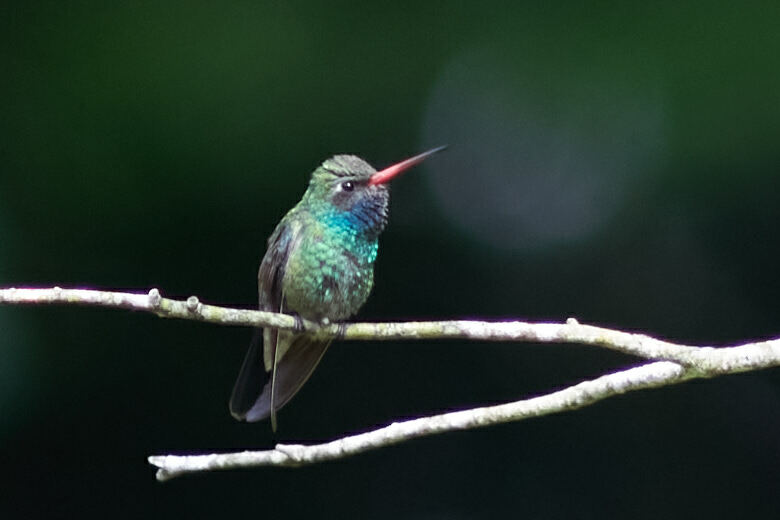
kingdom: Animalia
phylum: Chordata
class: Aves
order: Apodiformes
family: Trochilidae
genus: Cynanthus
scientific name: Cynanthus latirostris
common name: Broad-billed hummingbird
